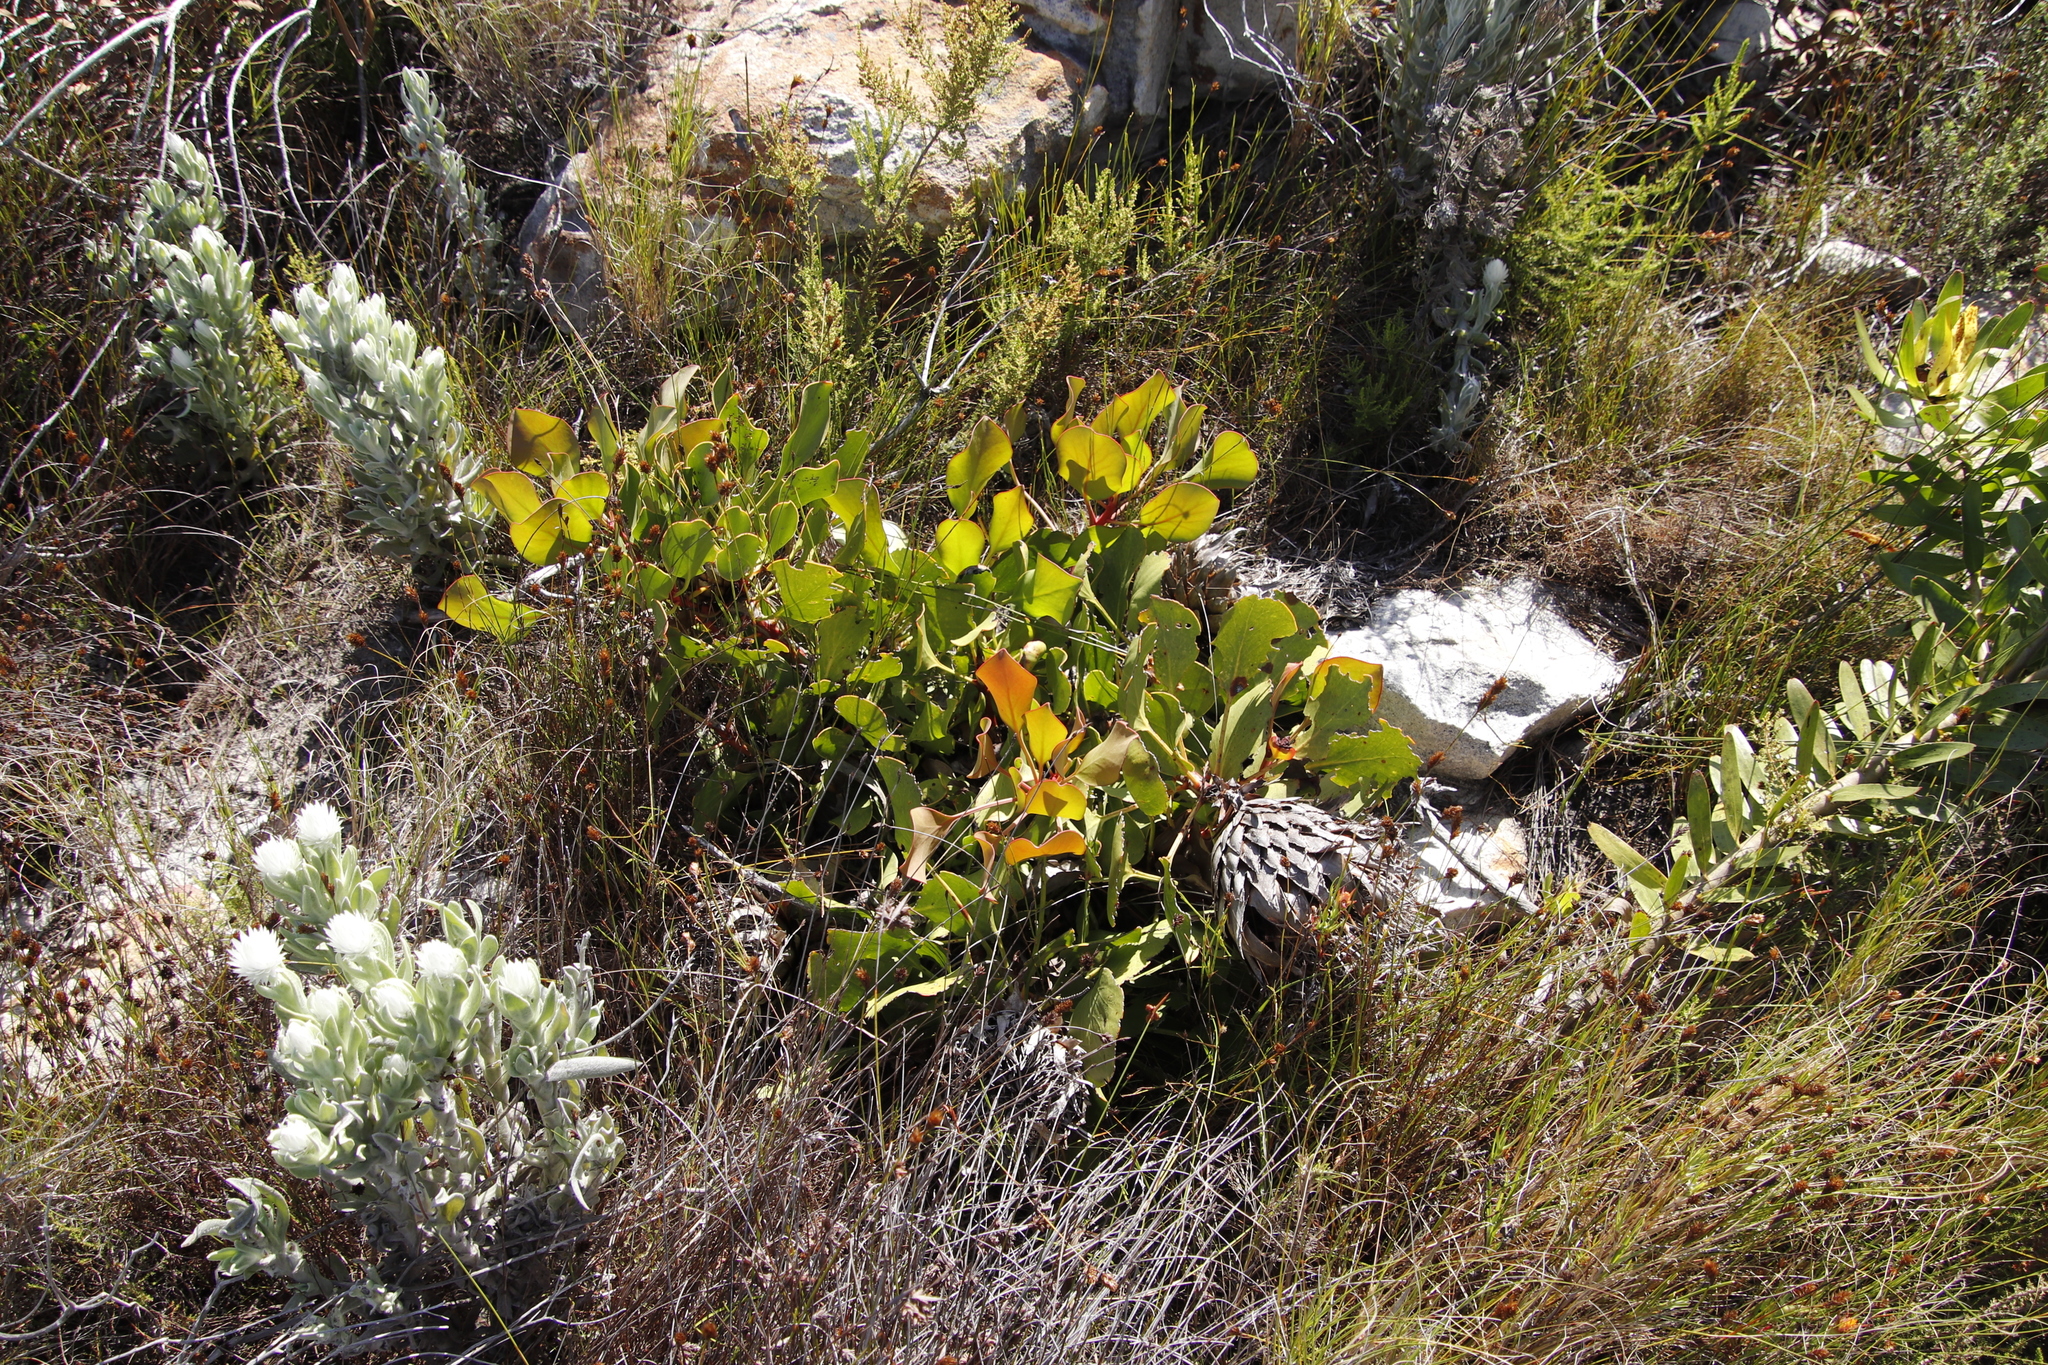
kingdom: Plantae
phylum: Tracheophyta
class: Magnoliopsida
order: Proteales
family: Proteaceae
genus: Protea
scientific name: Protea cynaroides
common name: King protea
